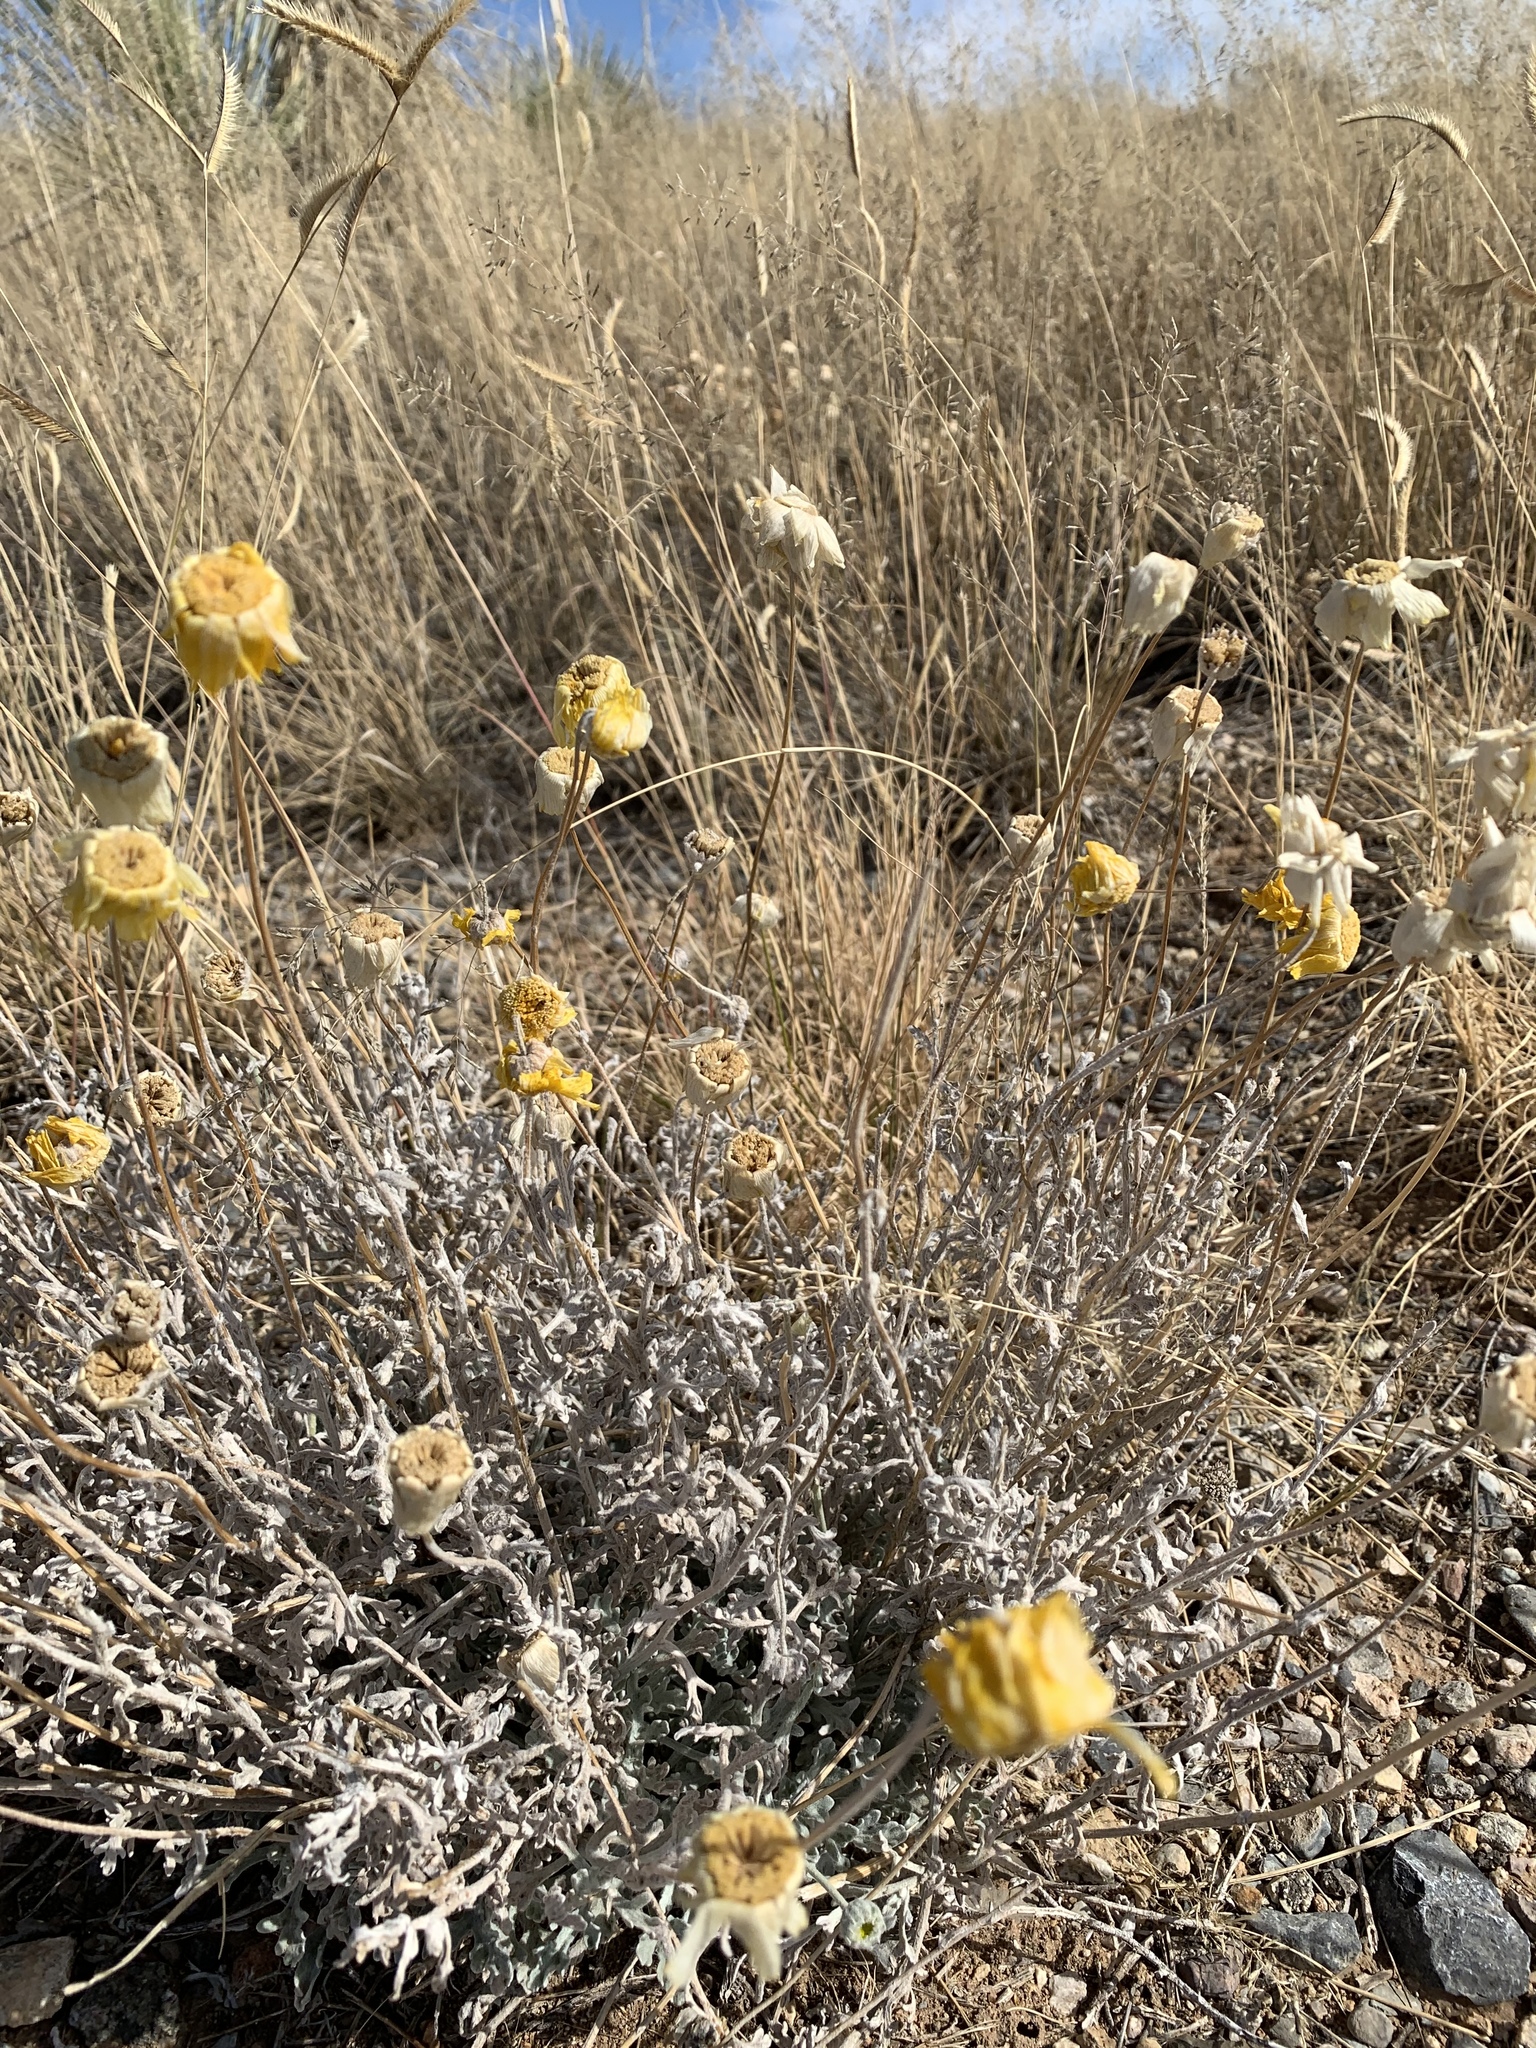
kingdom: Plantae
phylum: Tracheophyta
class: Magnoliopsida
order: Asterales
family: Asteraceae
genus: Baileya
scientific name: Baileya multiradiata
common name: Desert-marigold
